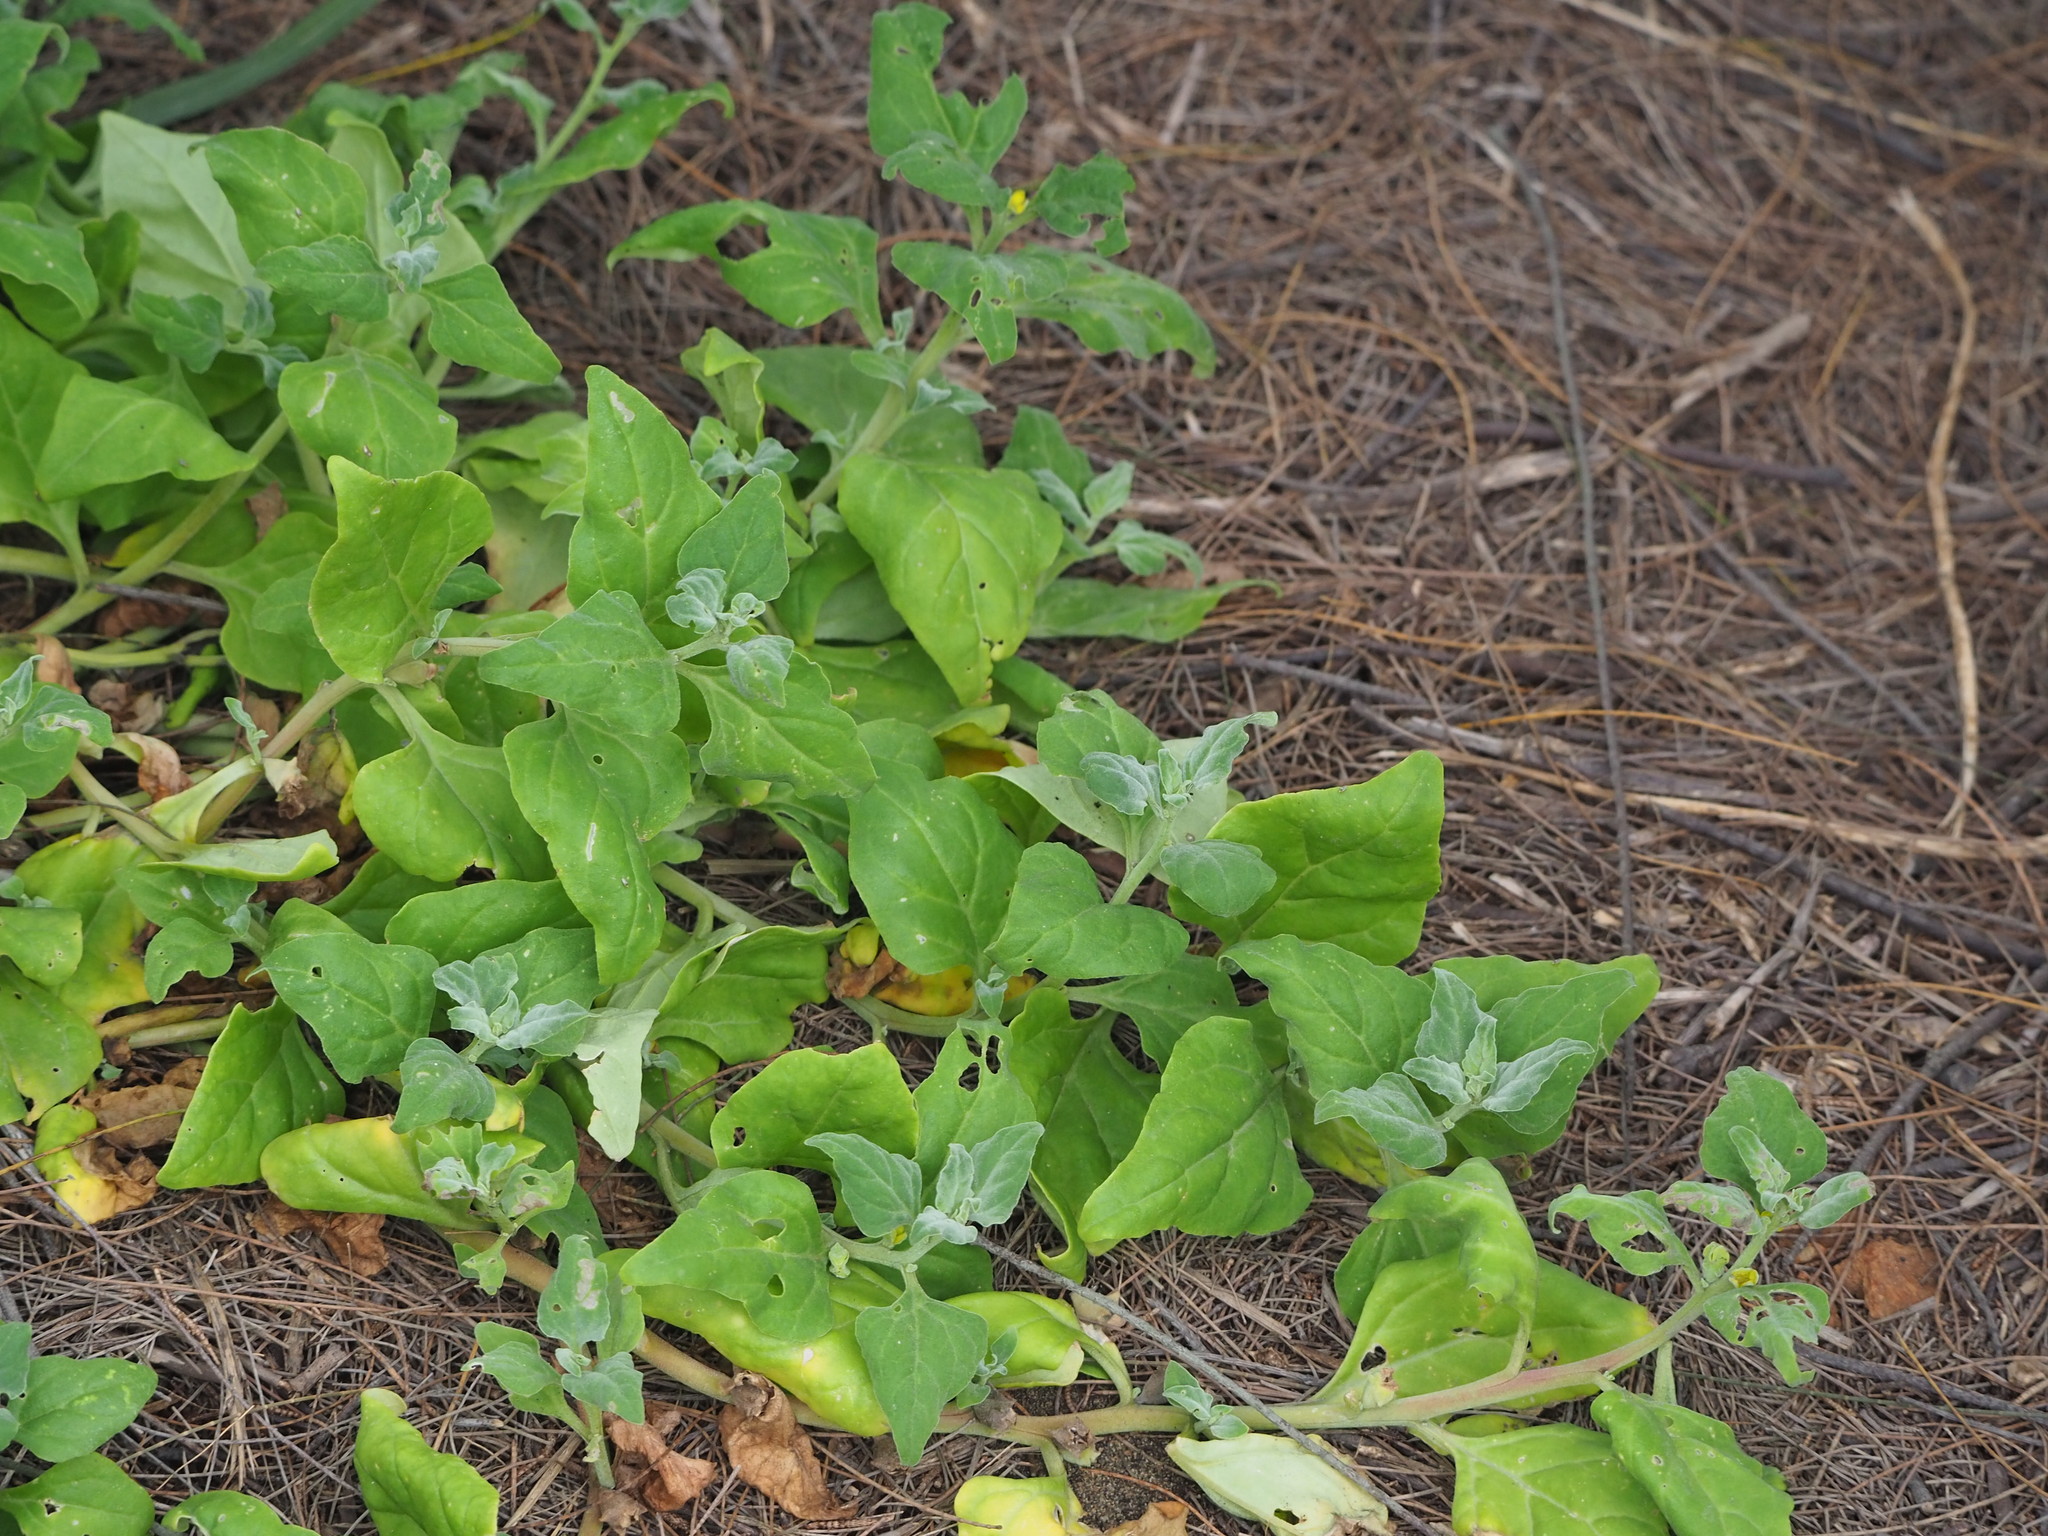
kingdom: Plantae
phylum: Tracheophyta
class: Magnoliopsida
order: Caryophyllales
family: Aizoaceae
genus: Tetragonia
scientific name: Tetragonia tetragonoides
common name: New zealand-spinach
